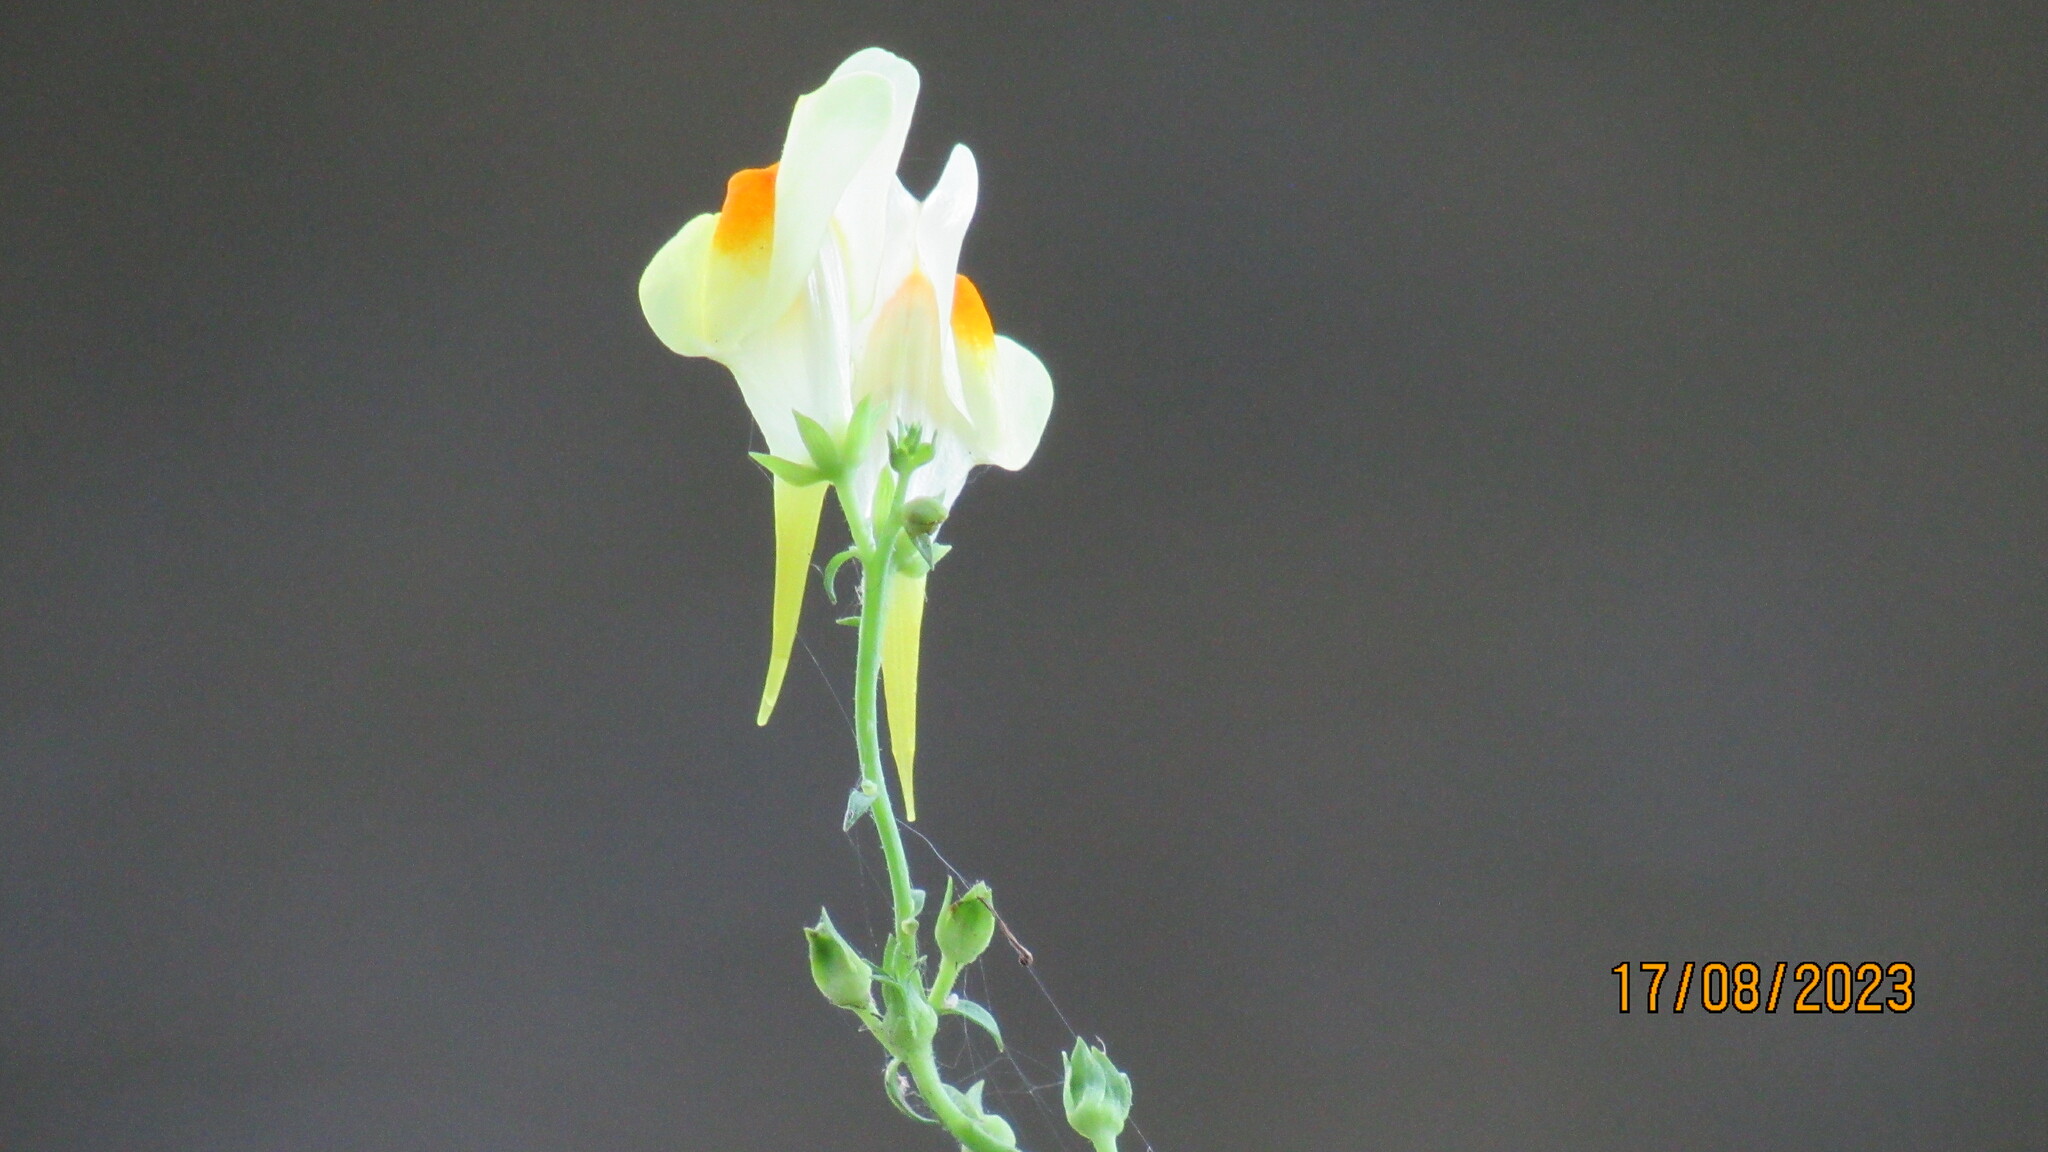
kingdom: Plantae
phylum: Tracheophyta
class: Magnoliopsida
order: Lamiales
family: Plantaginaceae
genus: Linaria
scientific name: Linaria vulgaris
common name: Butter and eggs
